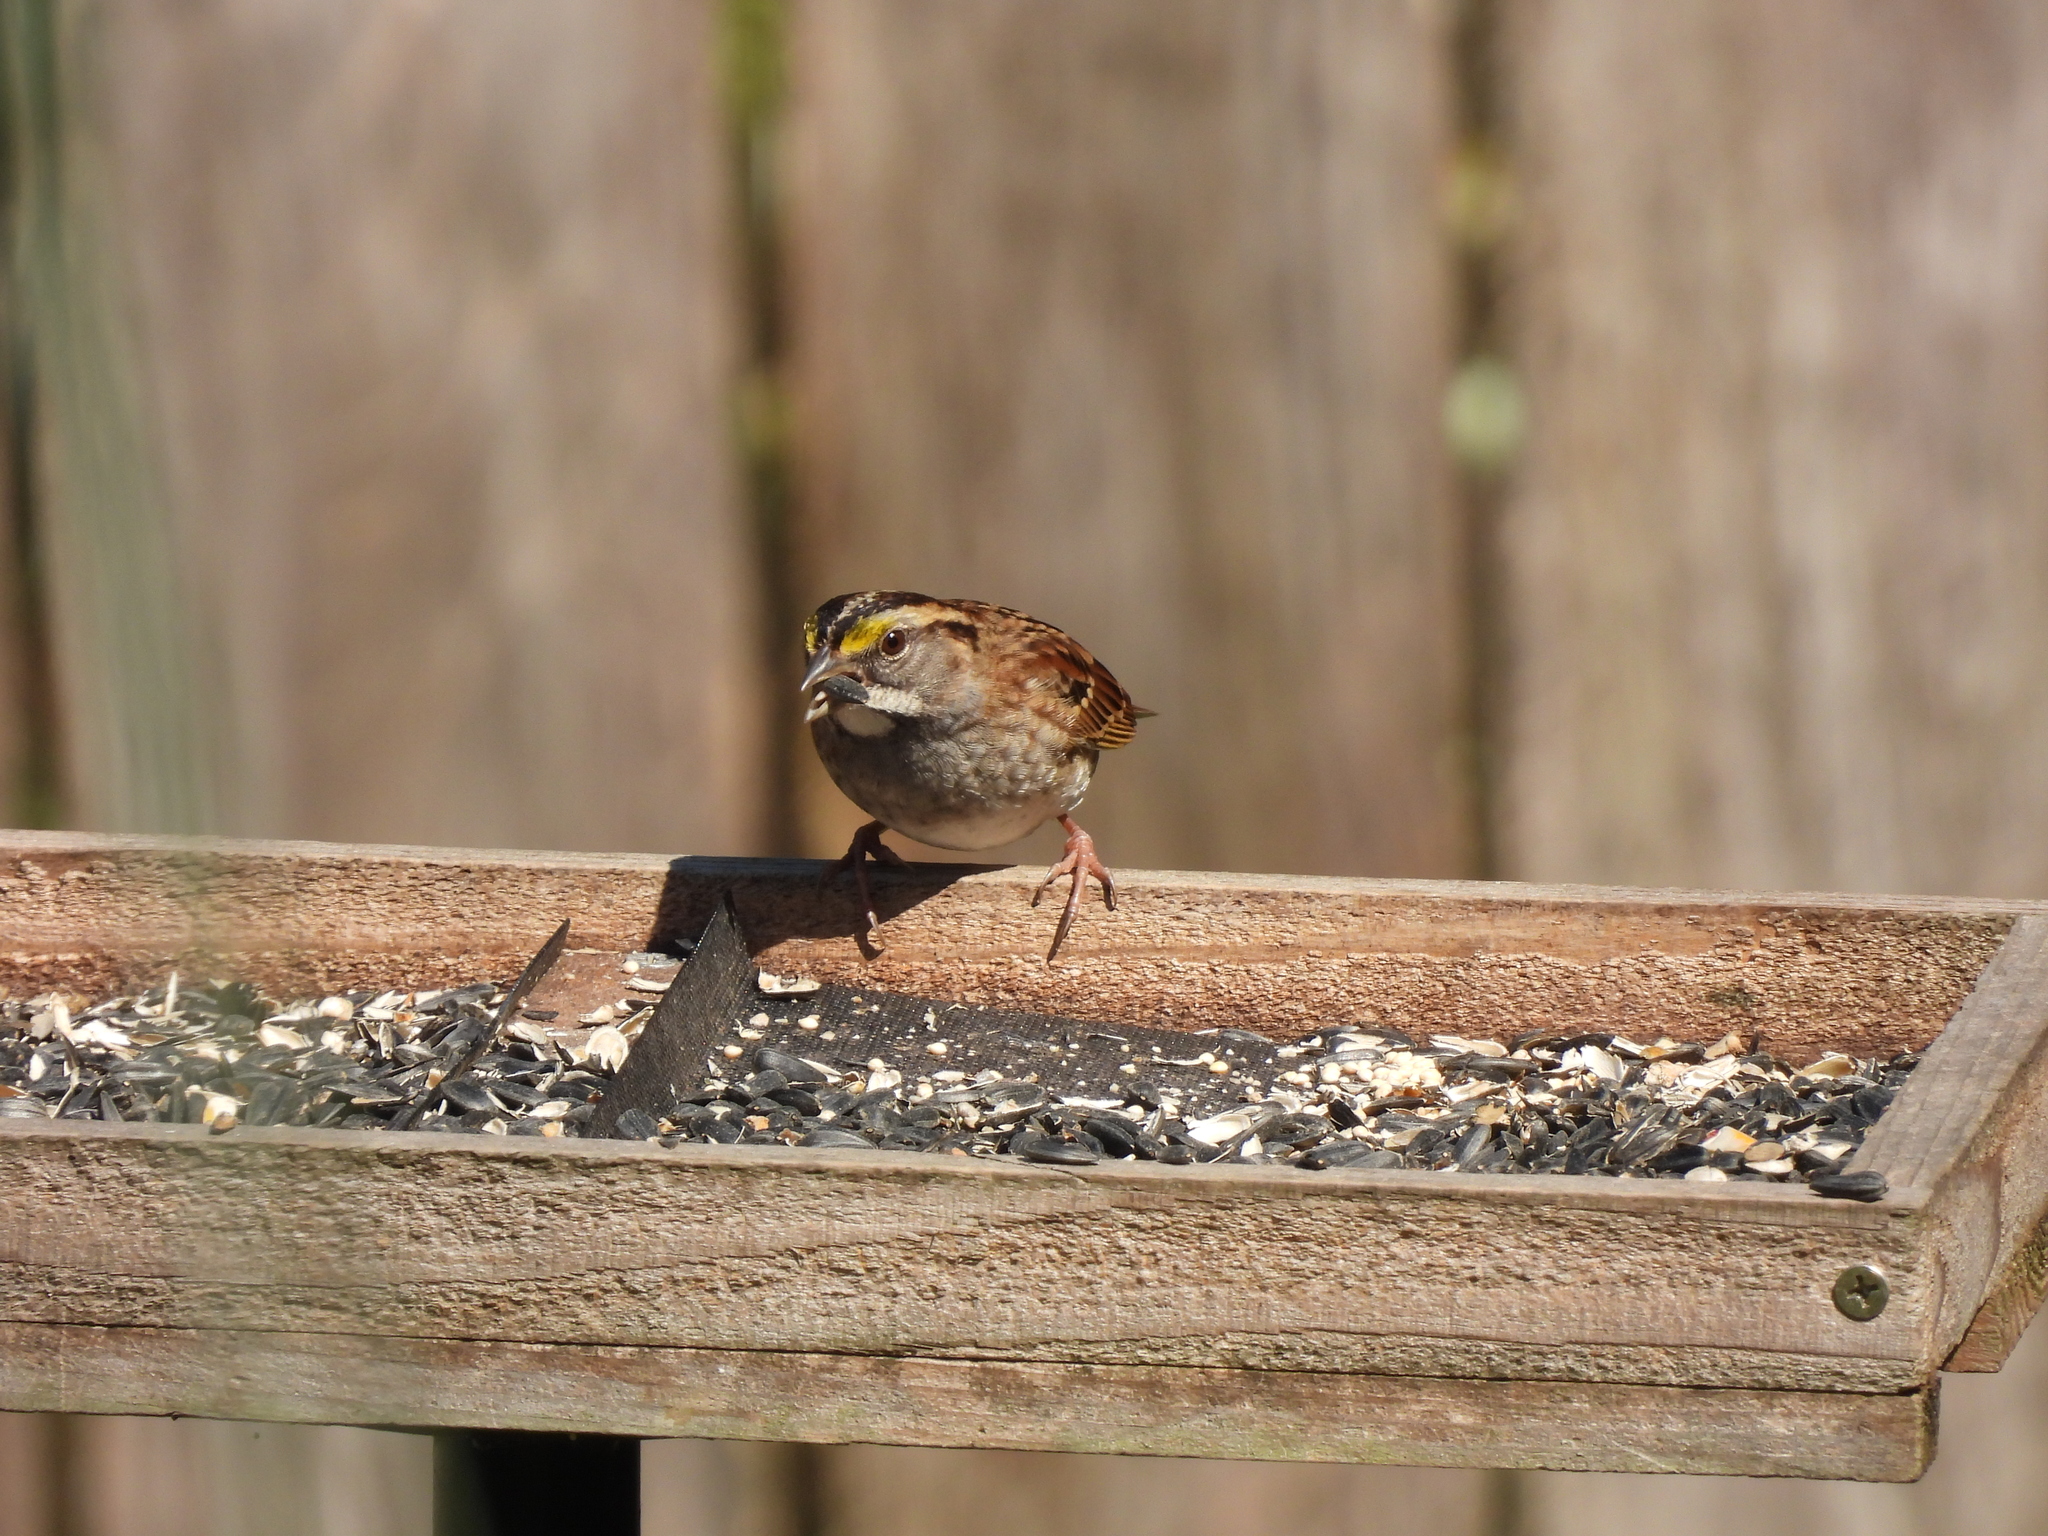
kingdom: Animalia
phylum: Chordata
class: Aves
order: Passeriformes
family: Passerellidae
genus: Zonotrichia
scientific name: Zonotrichia albicollis
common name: White-throated sparrow
